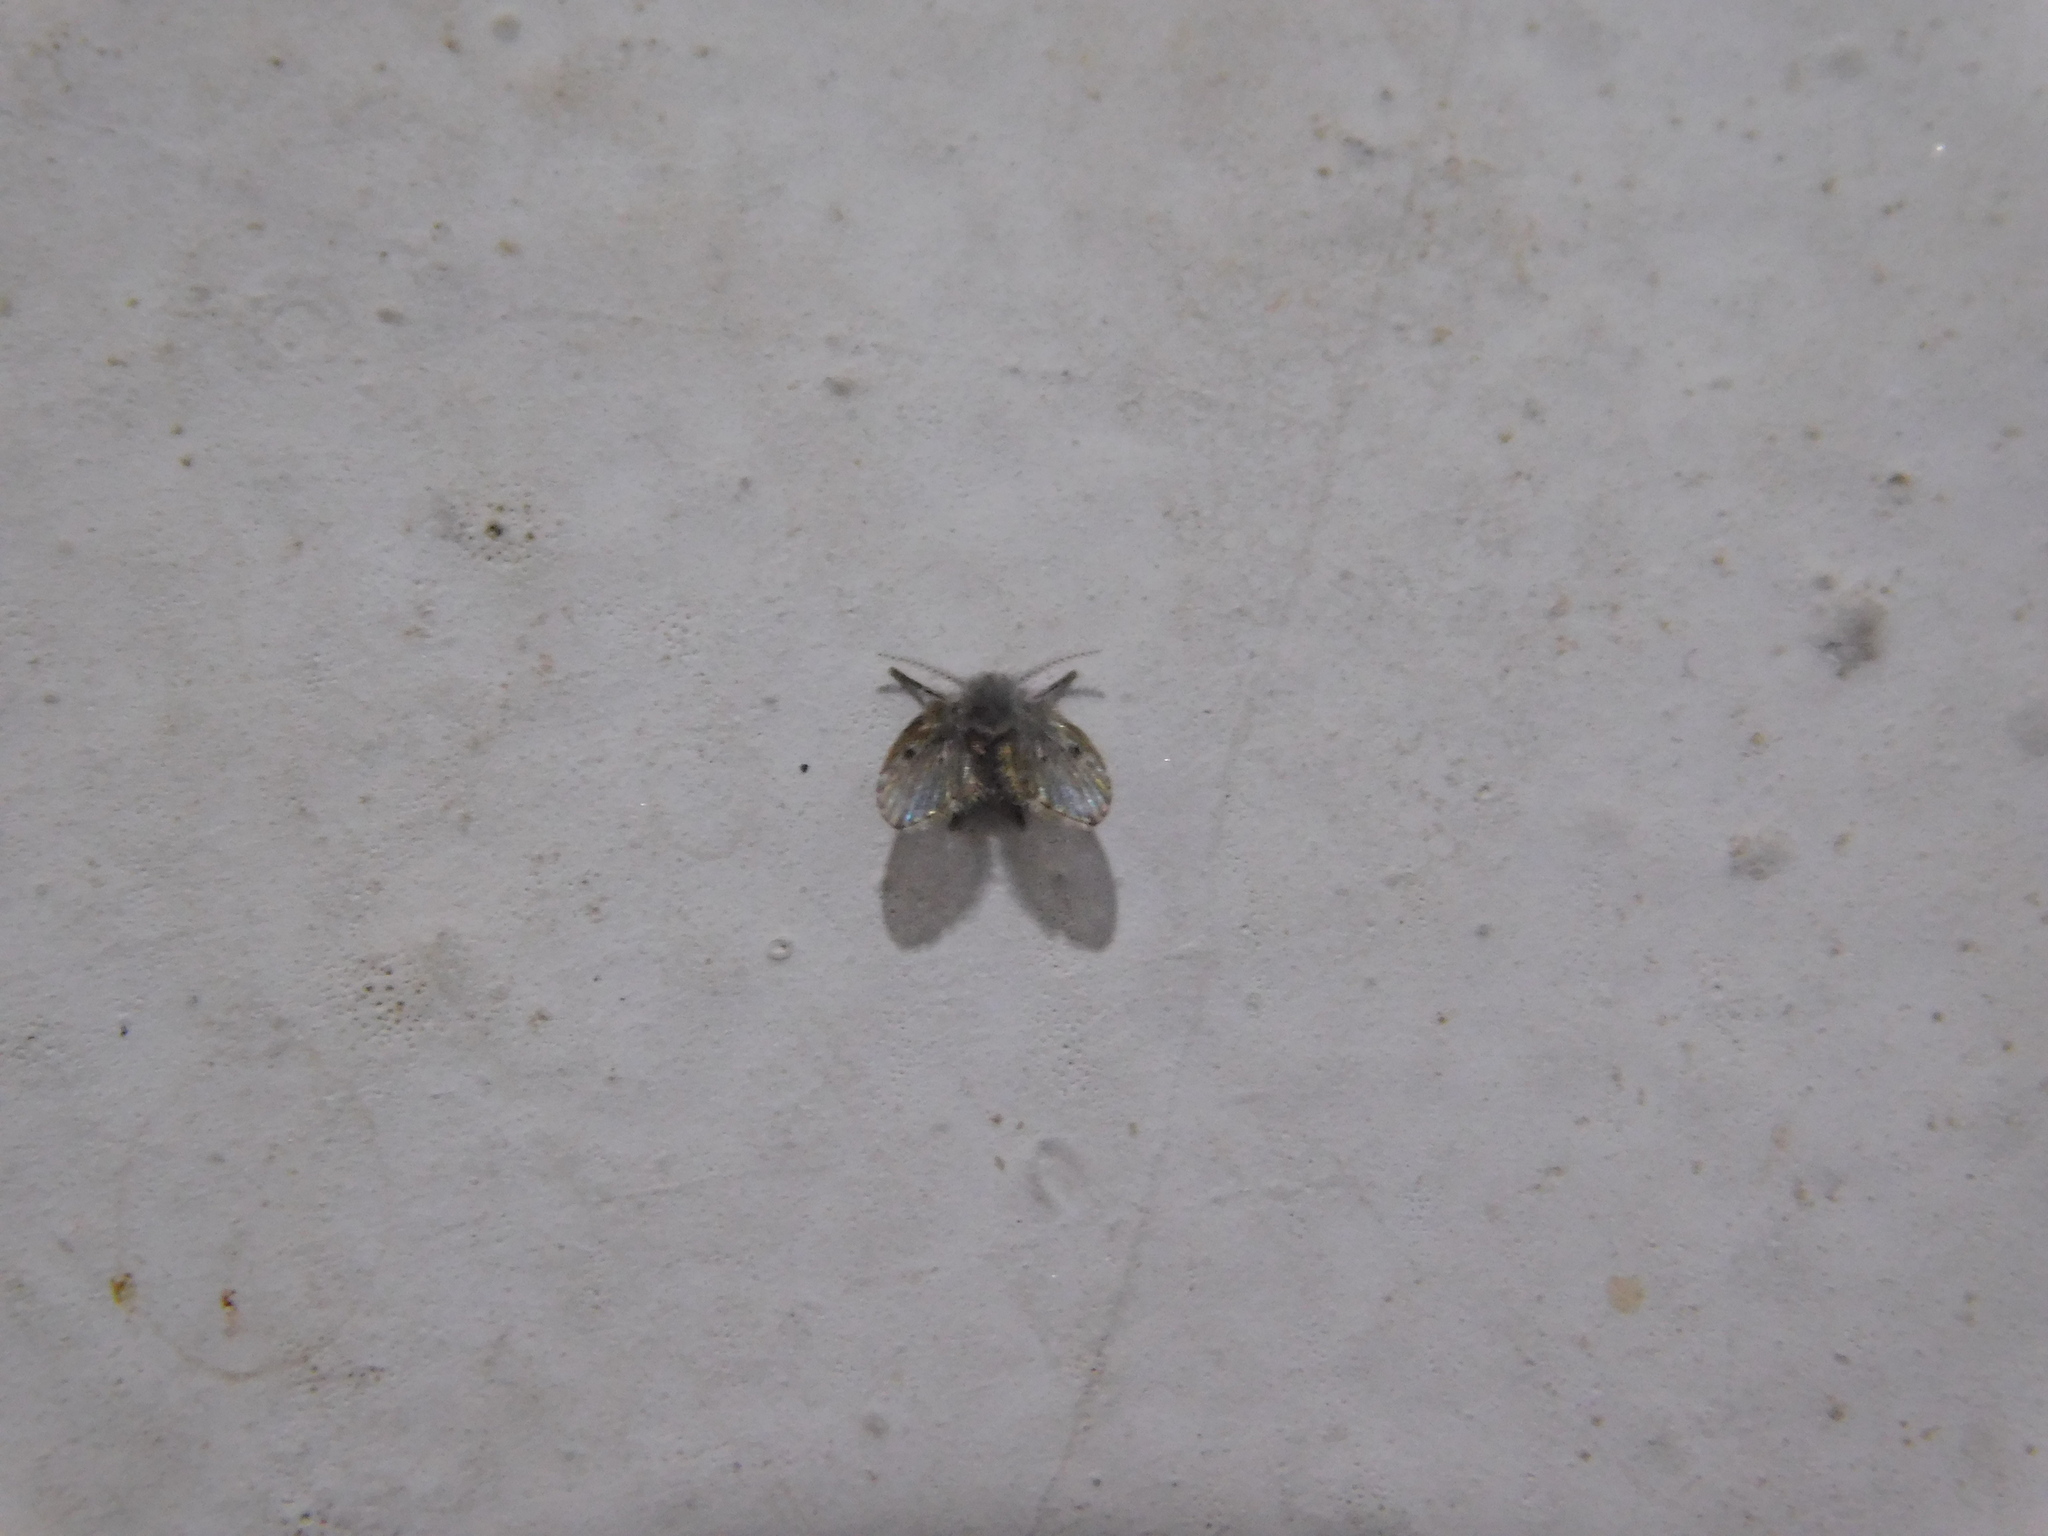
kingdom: Animalia
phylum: Arthropoda
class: Insecta
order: Diptera
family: Psychodidae
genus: Clogmia
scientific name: Clogmia albipunctatus
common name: White-spotted moth fly
